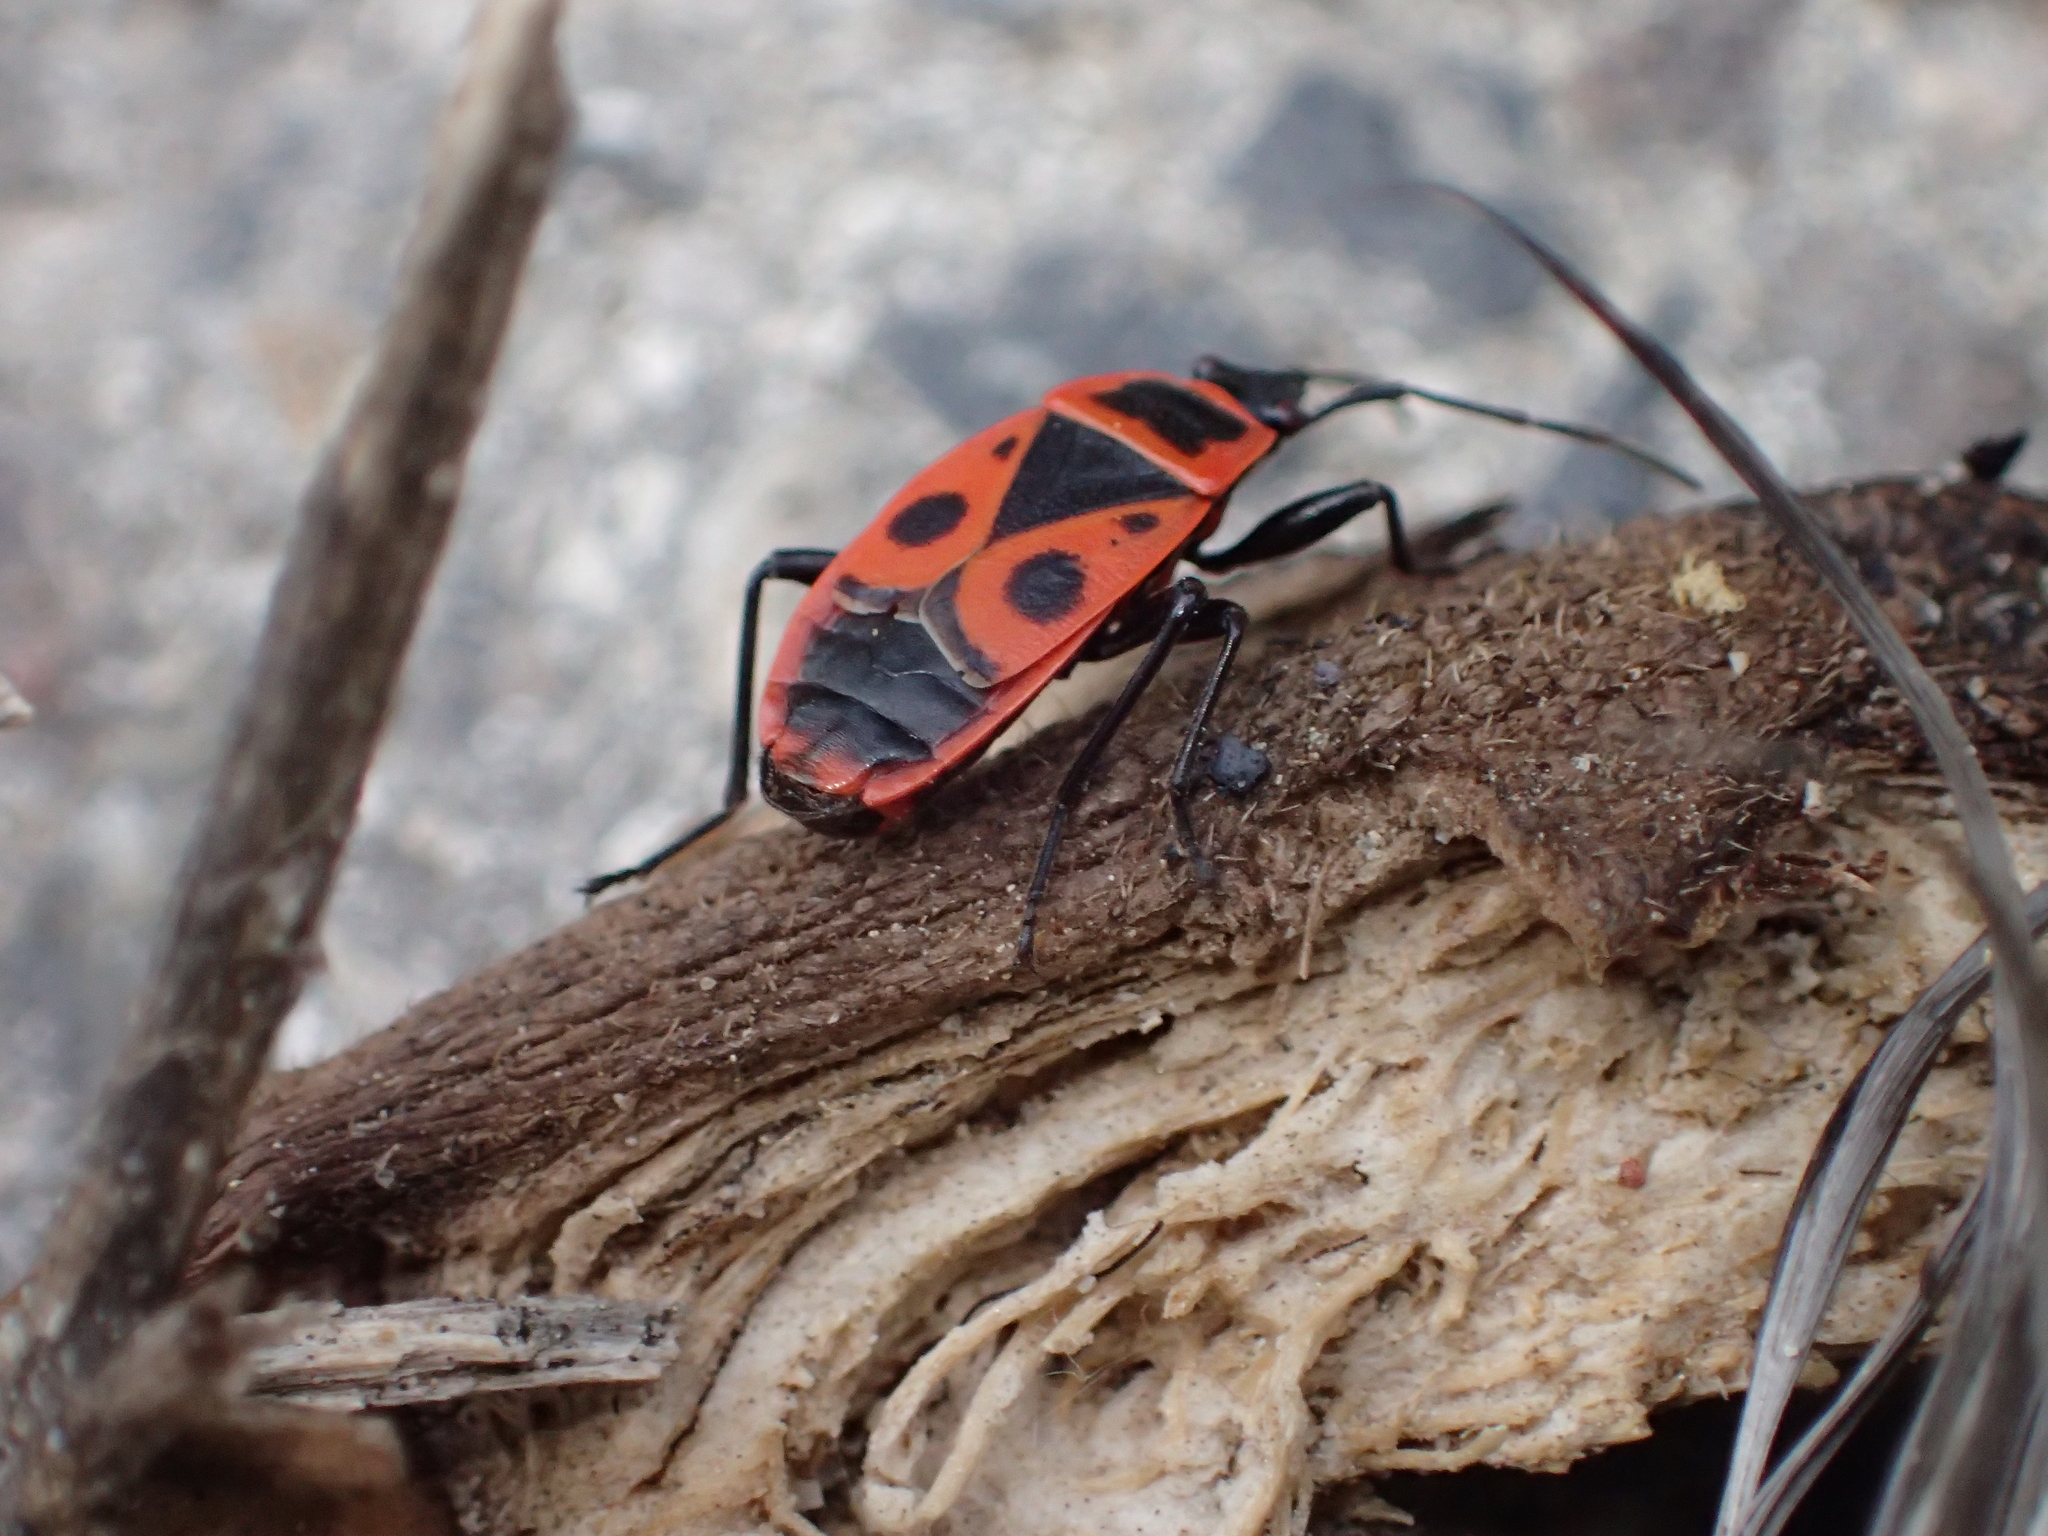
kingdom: Animalia
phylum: Arthropoda
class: Insecta
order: Hemiptera
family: Pyrrhocoridae
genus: Pyrrhocoris
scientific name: Pyrrhocoris apterus
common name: Firebug
